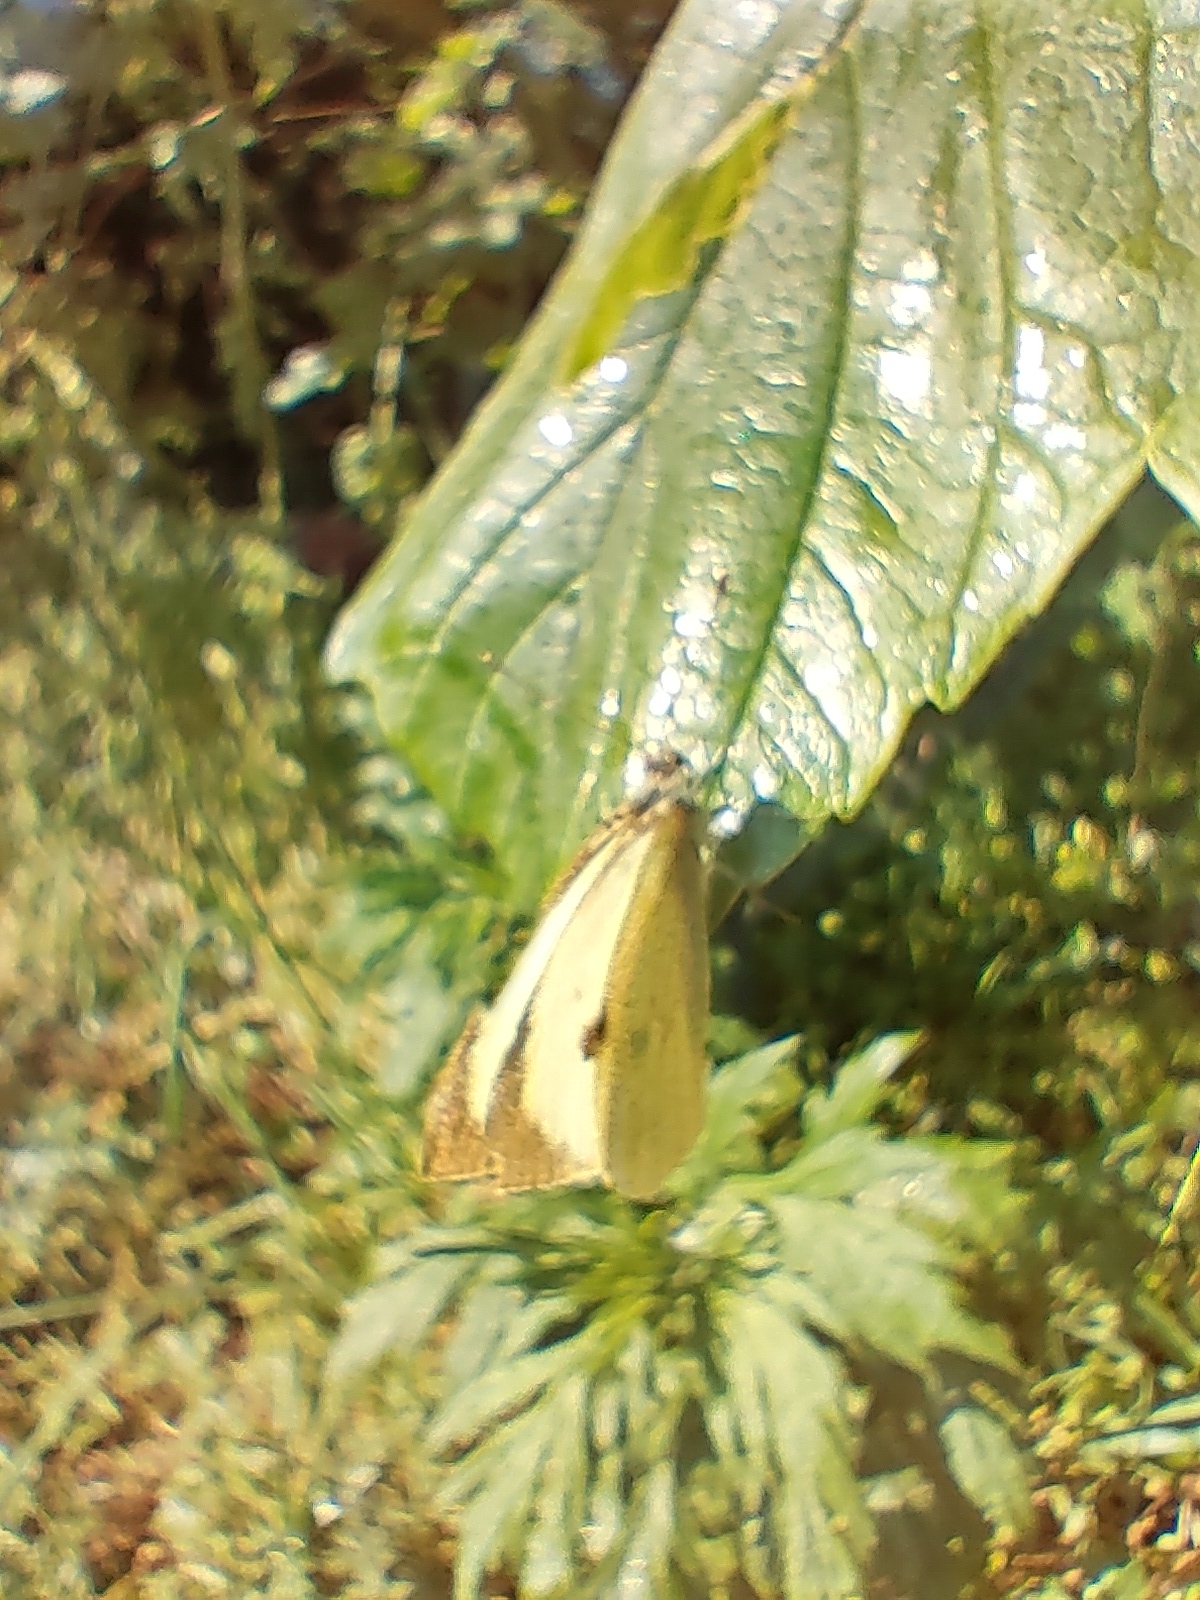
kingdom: Animalia
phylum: Arthropoda
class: Insecta
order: Lepidoptera
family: Pieridae
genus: Pieris
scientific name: Pieris brassicae
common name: Large white
